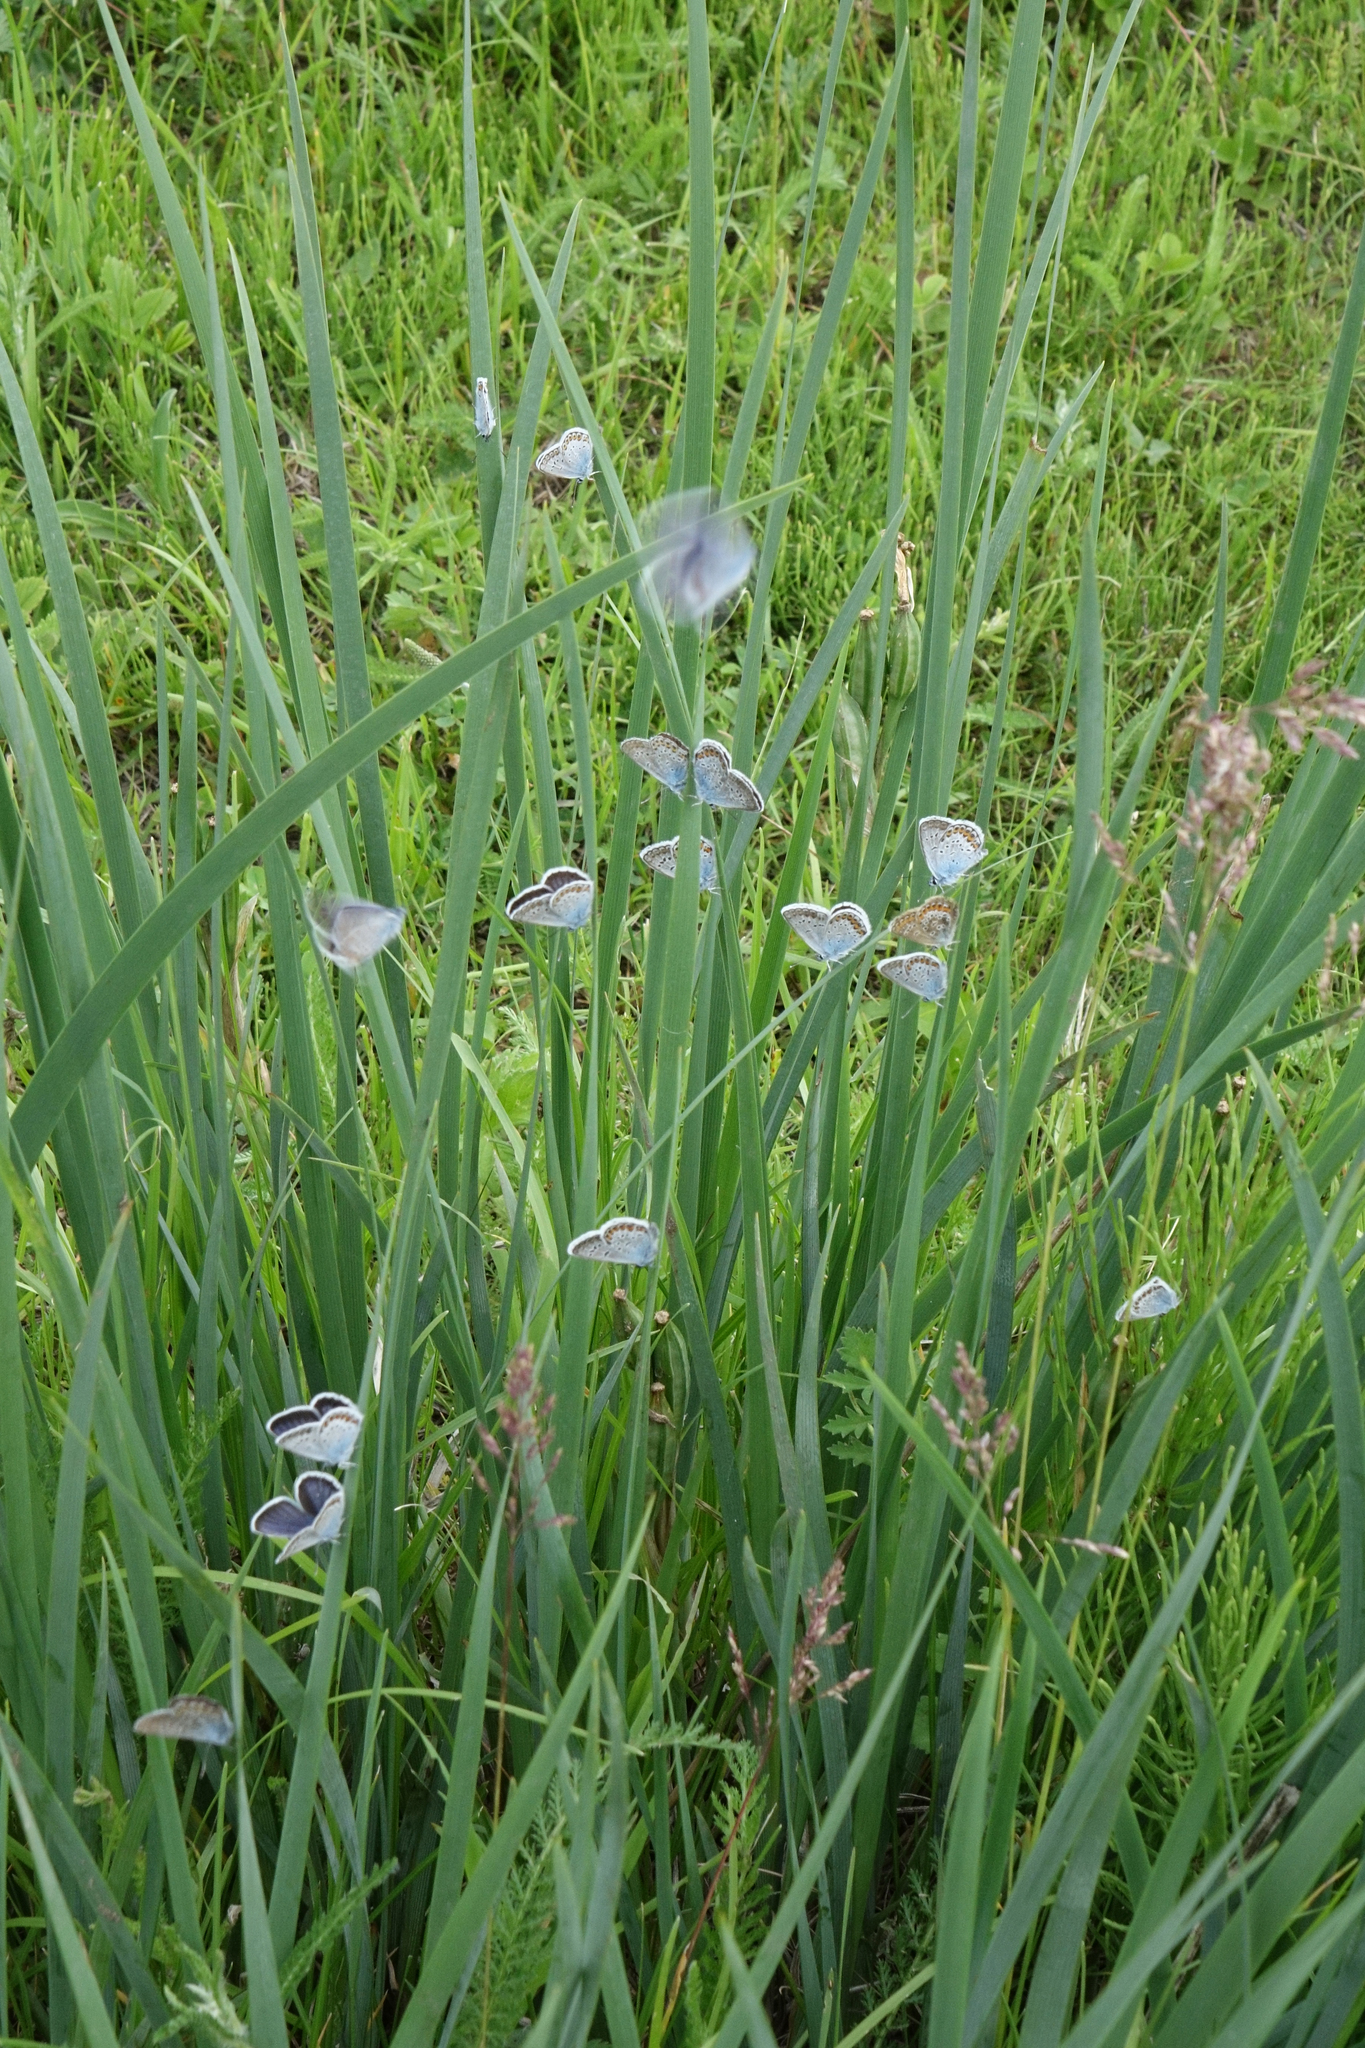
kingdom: Animalia
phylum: Arthropoda
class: Insecta
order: Lepidoptera
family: Lycaenidae
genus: Plebejus
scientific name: Plebejus argus
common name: Silver-studded blue
